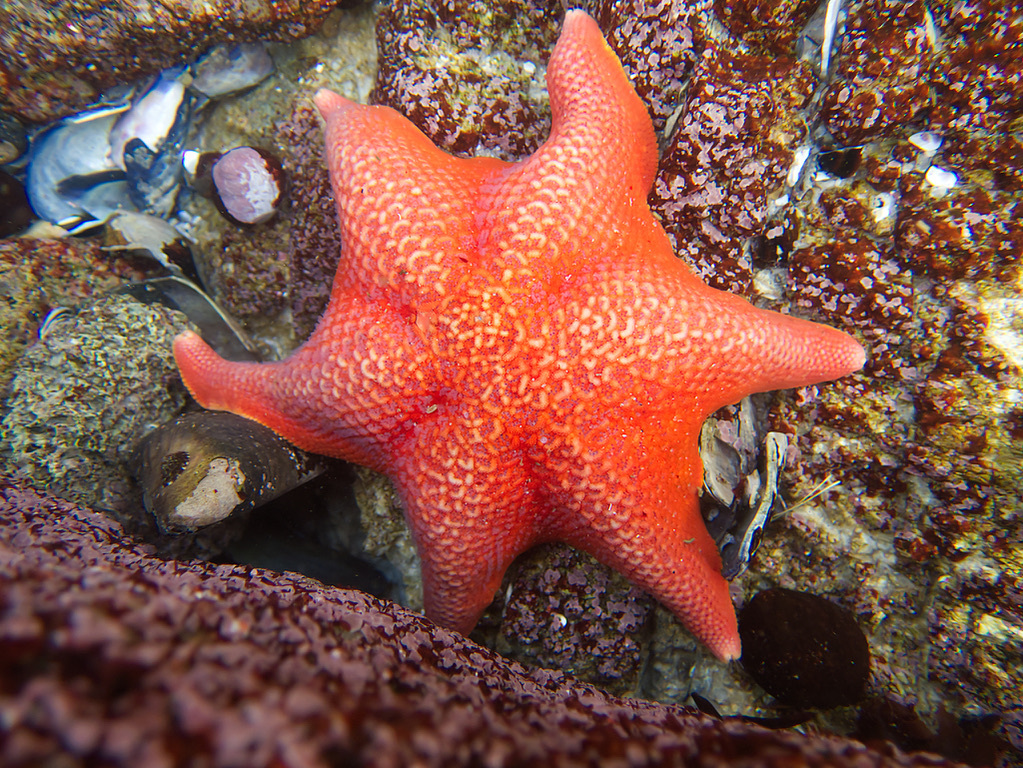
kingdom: Animalia
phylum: Echinodermata
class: Asteroidea
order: Valvatida
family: Asterinidae
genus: Patiria
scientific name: Patiria miniata
